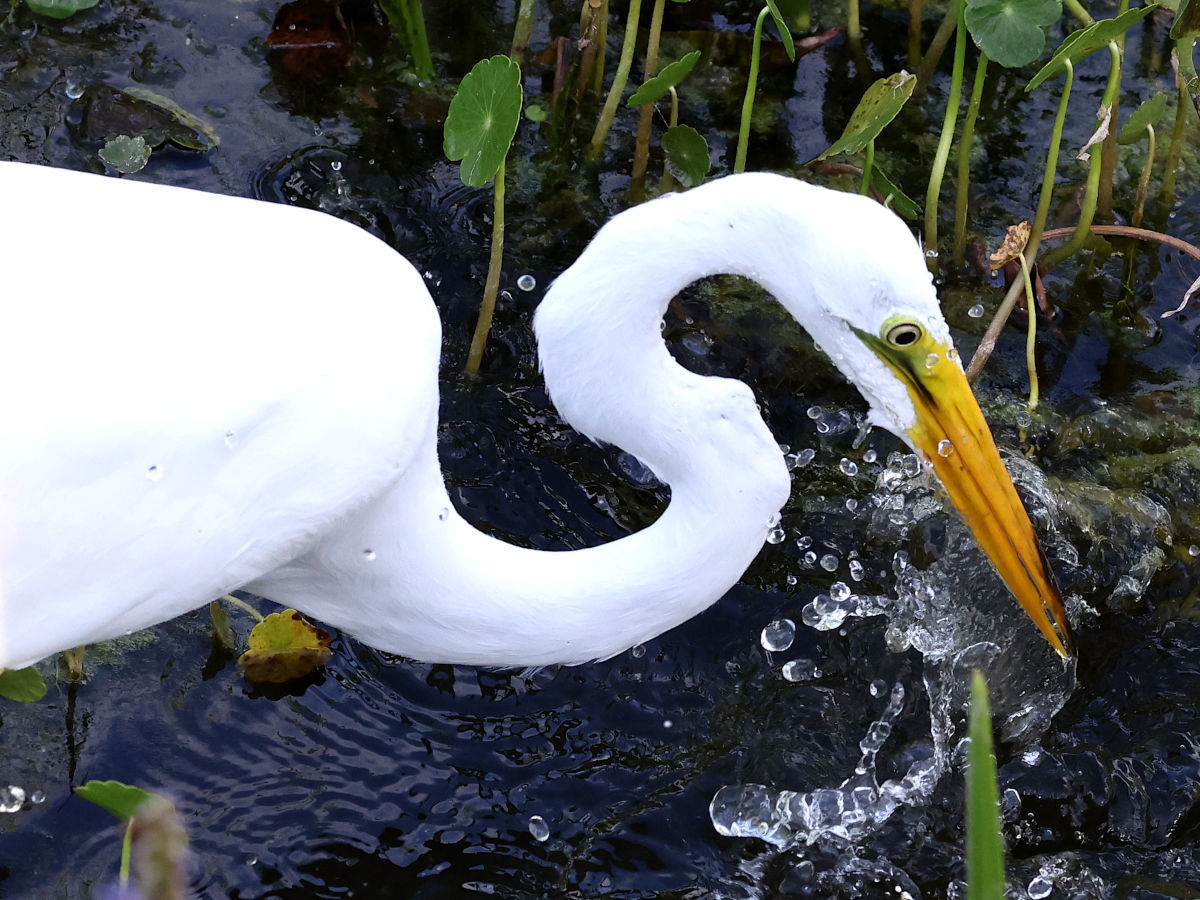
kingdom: Animalia
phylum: Chordata
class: Aves
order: Pelecaniformes
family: Ardeidae
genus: Ardea
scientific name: Ardea alba
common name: Great egret
